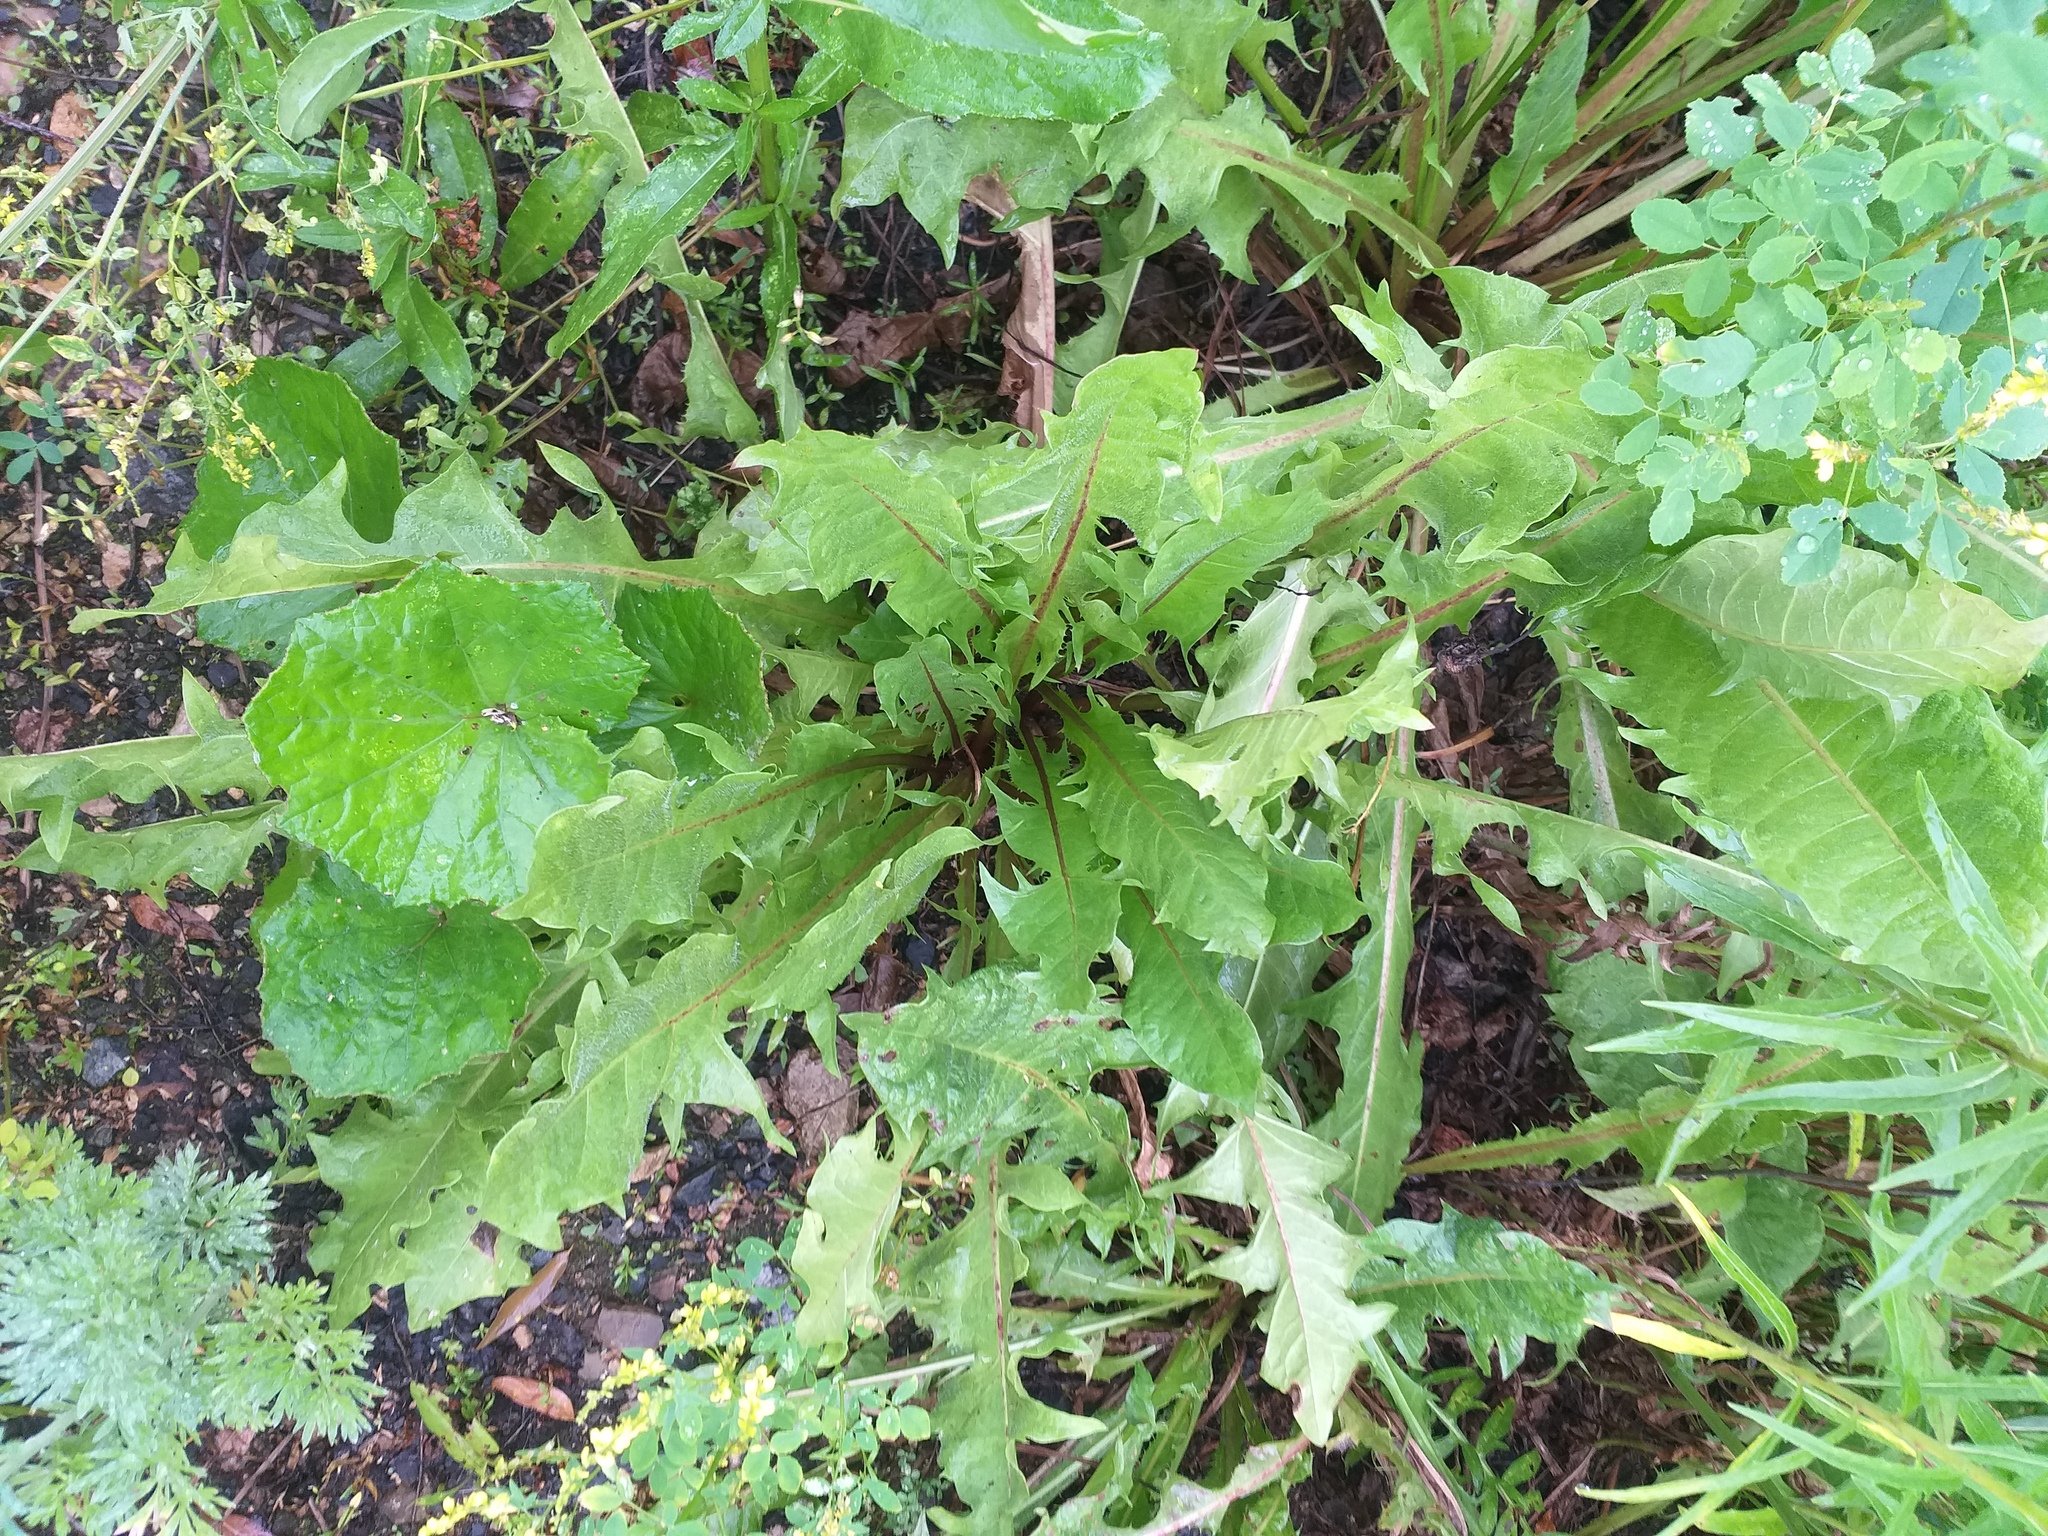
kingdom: Plantae
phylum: Tracheophyta
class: Magnoliopsida
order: Asterales
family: Asteraceae
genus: Taraxacum
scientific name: Taraxacum officinale
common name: Common dandelion
